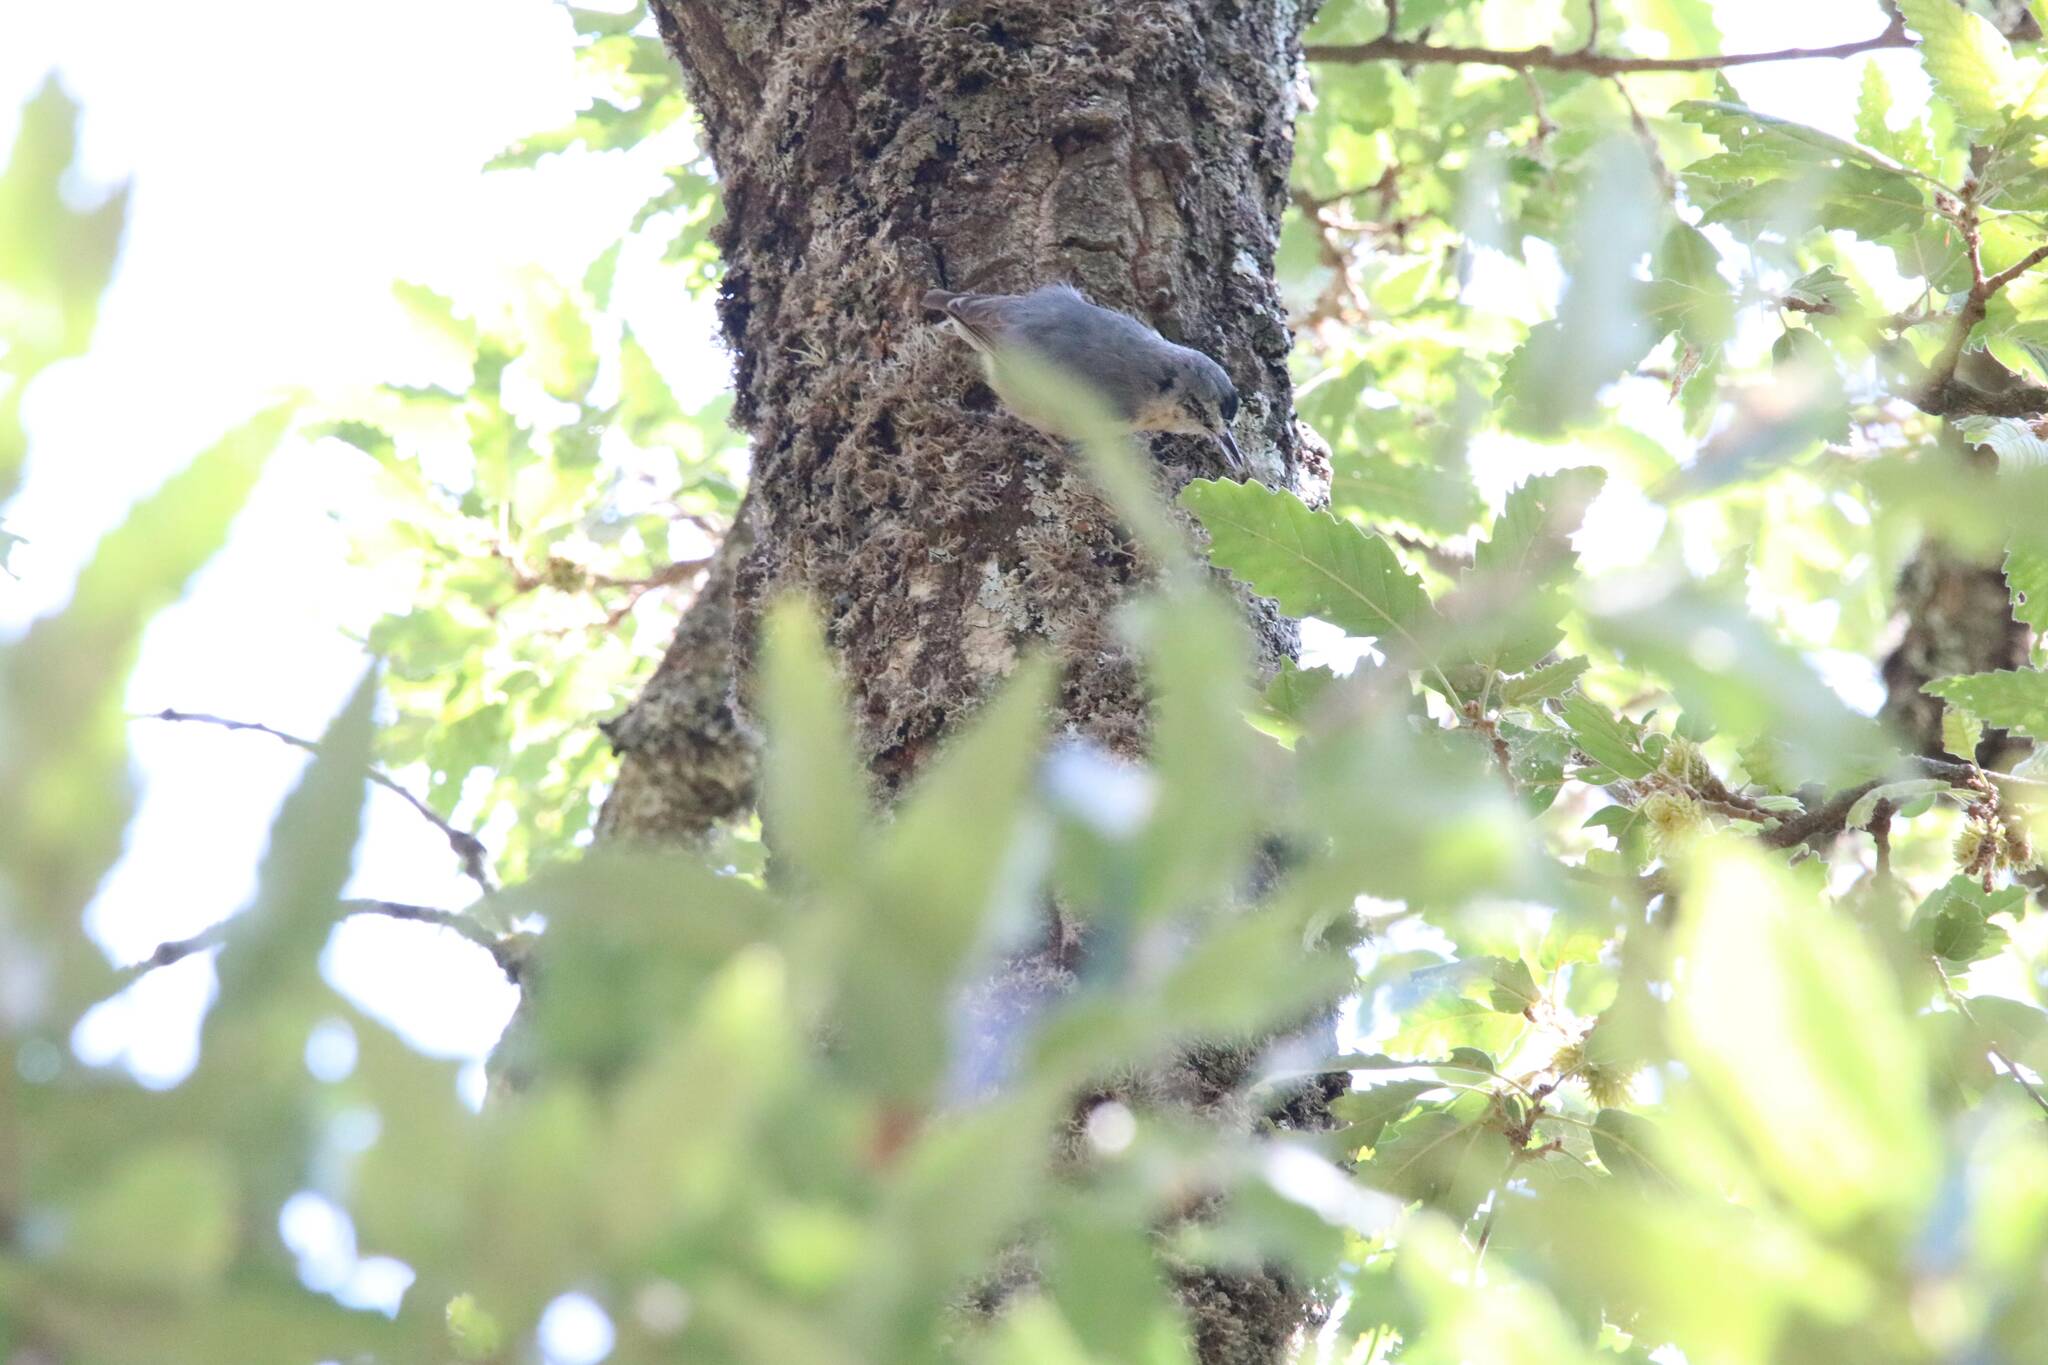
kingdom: Animalia
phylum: Chordata
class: Aves
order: Passeriformes
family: Sittidae
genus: Sitta
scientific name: Sitta ledanti
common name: Algerian nuthatch
